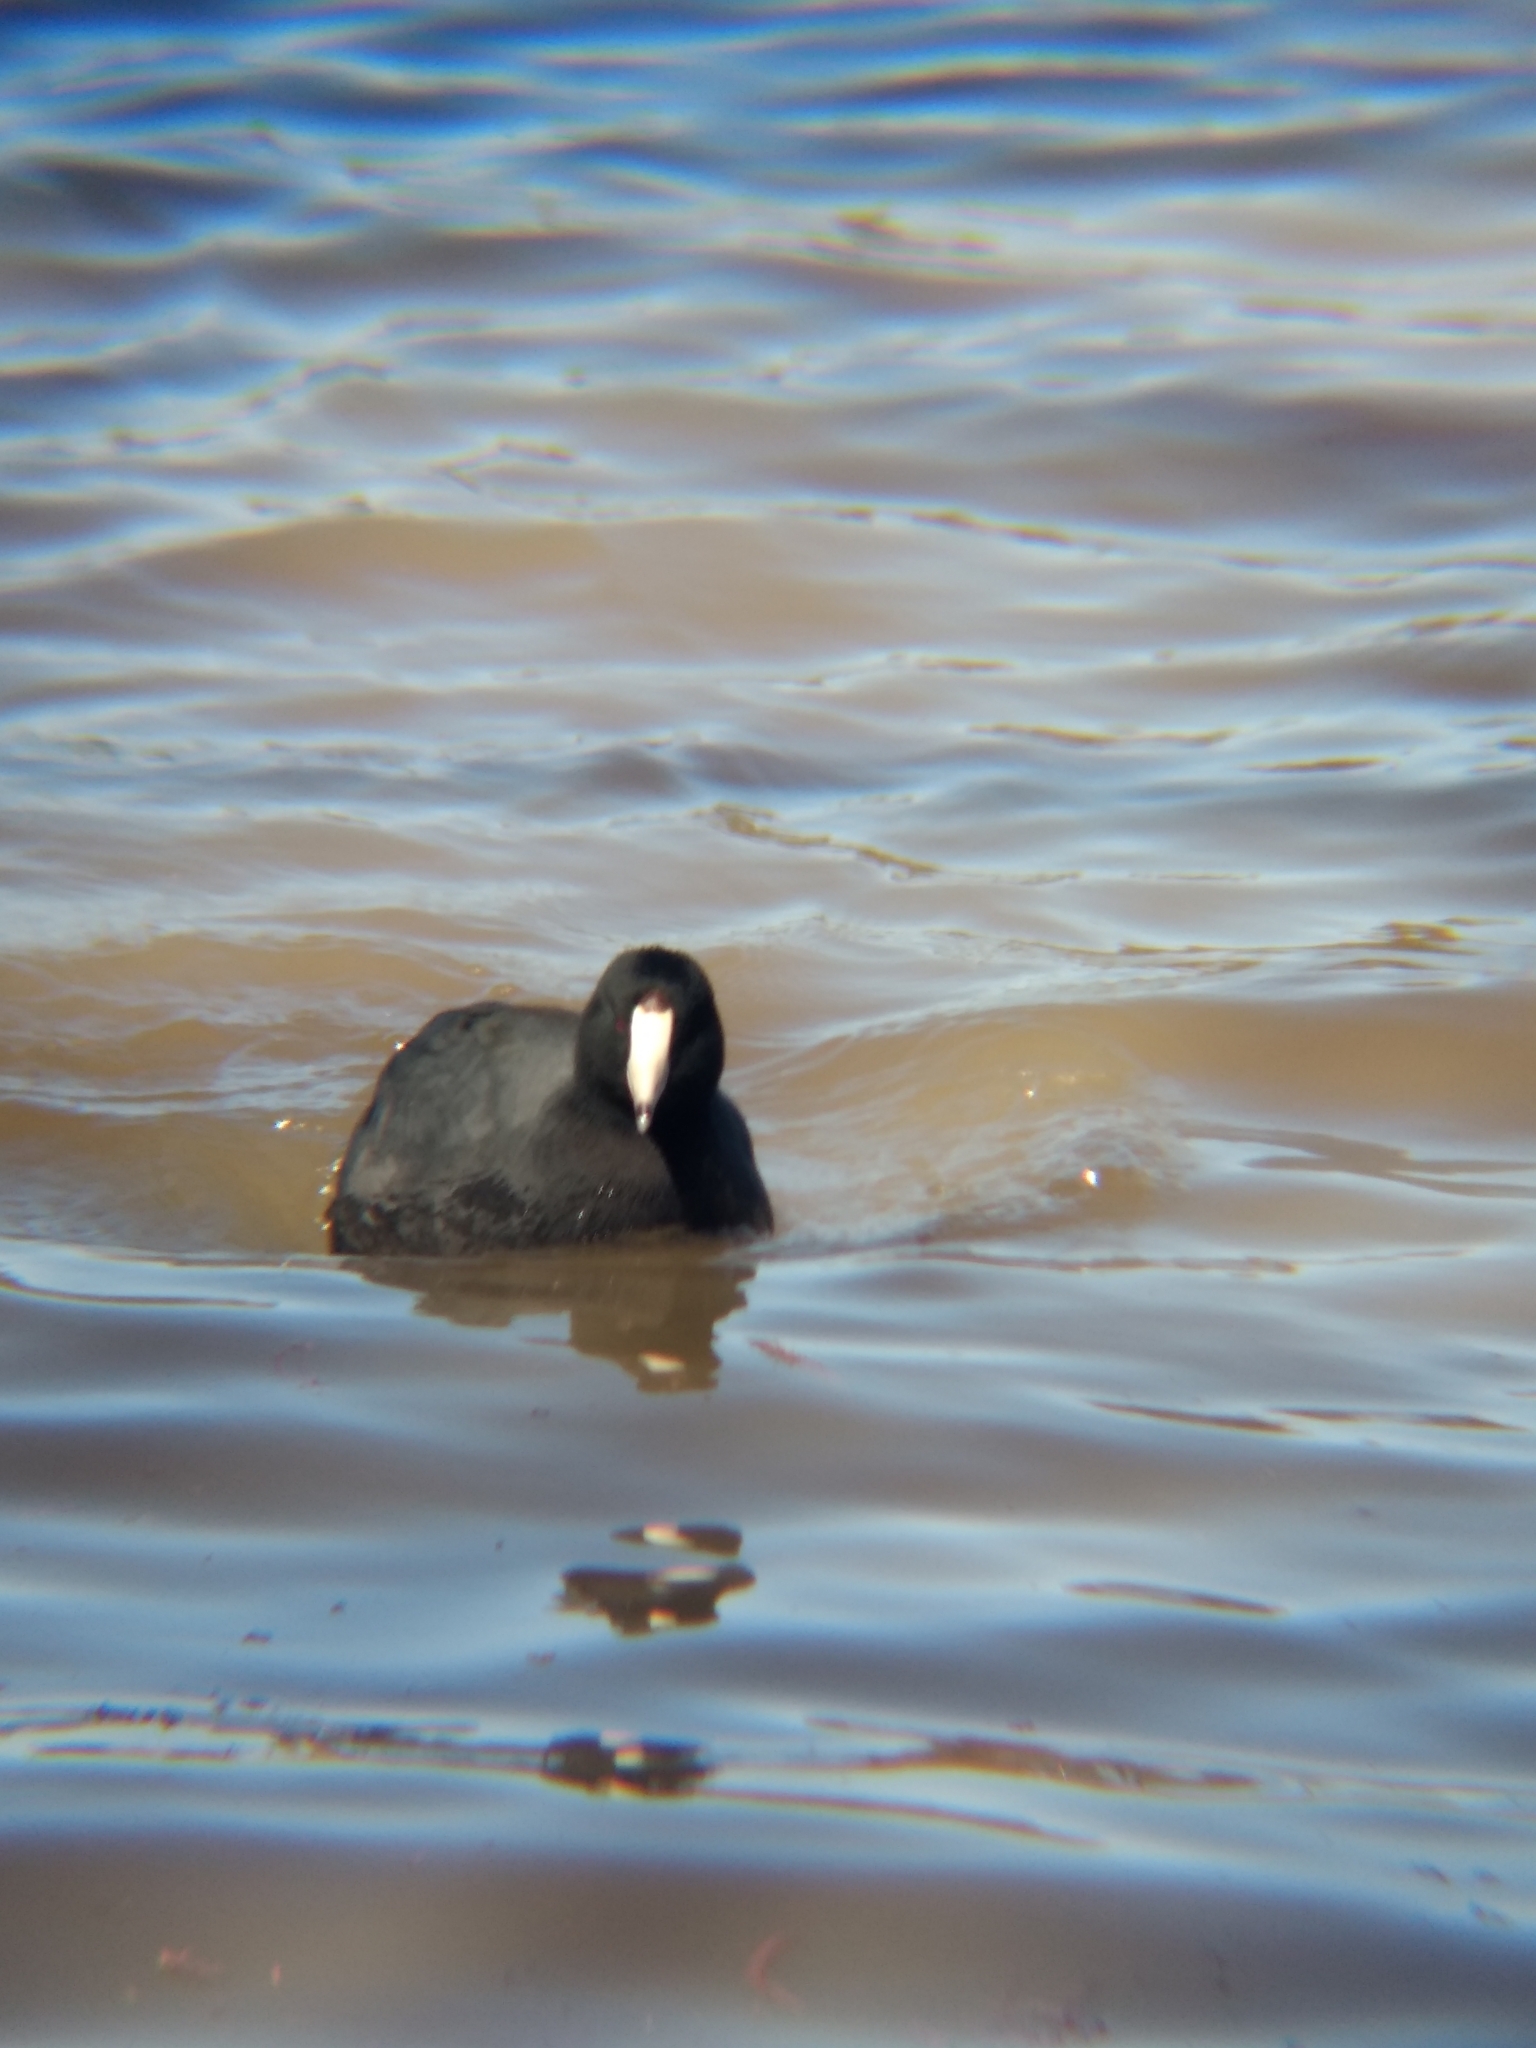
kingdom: Animalia
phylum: Chordata
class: Aves
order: Gruiformes
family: Rallidae
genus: Fulica
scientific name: Fulica americana
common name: American coot
